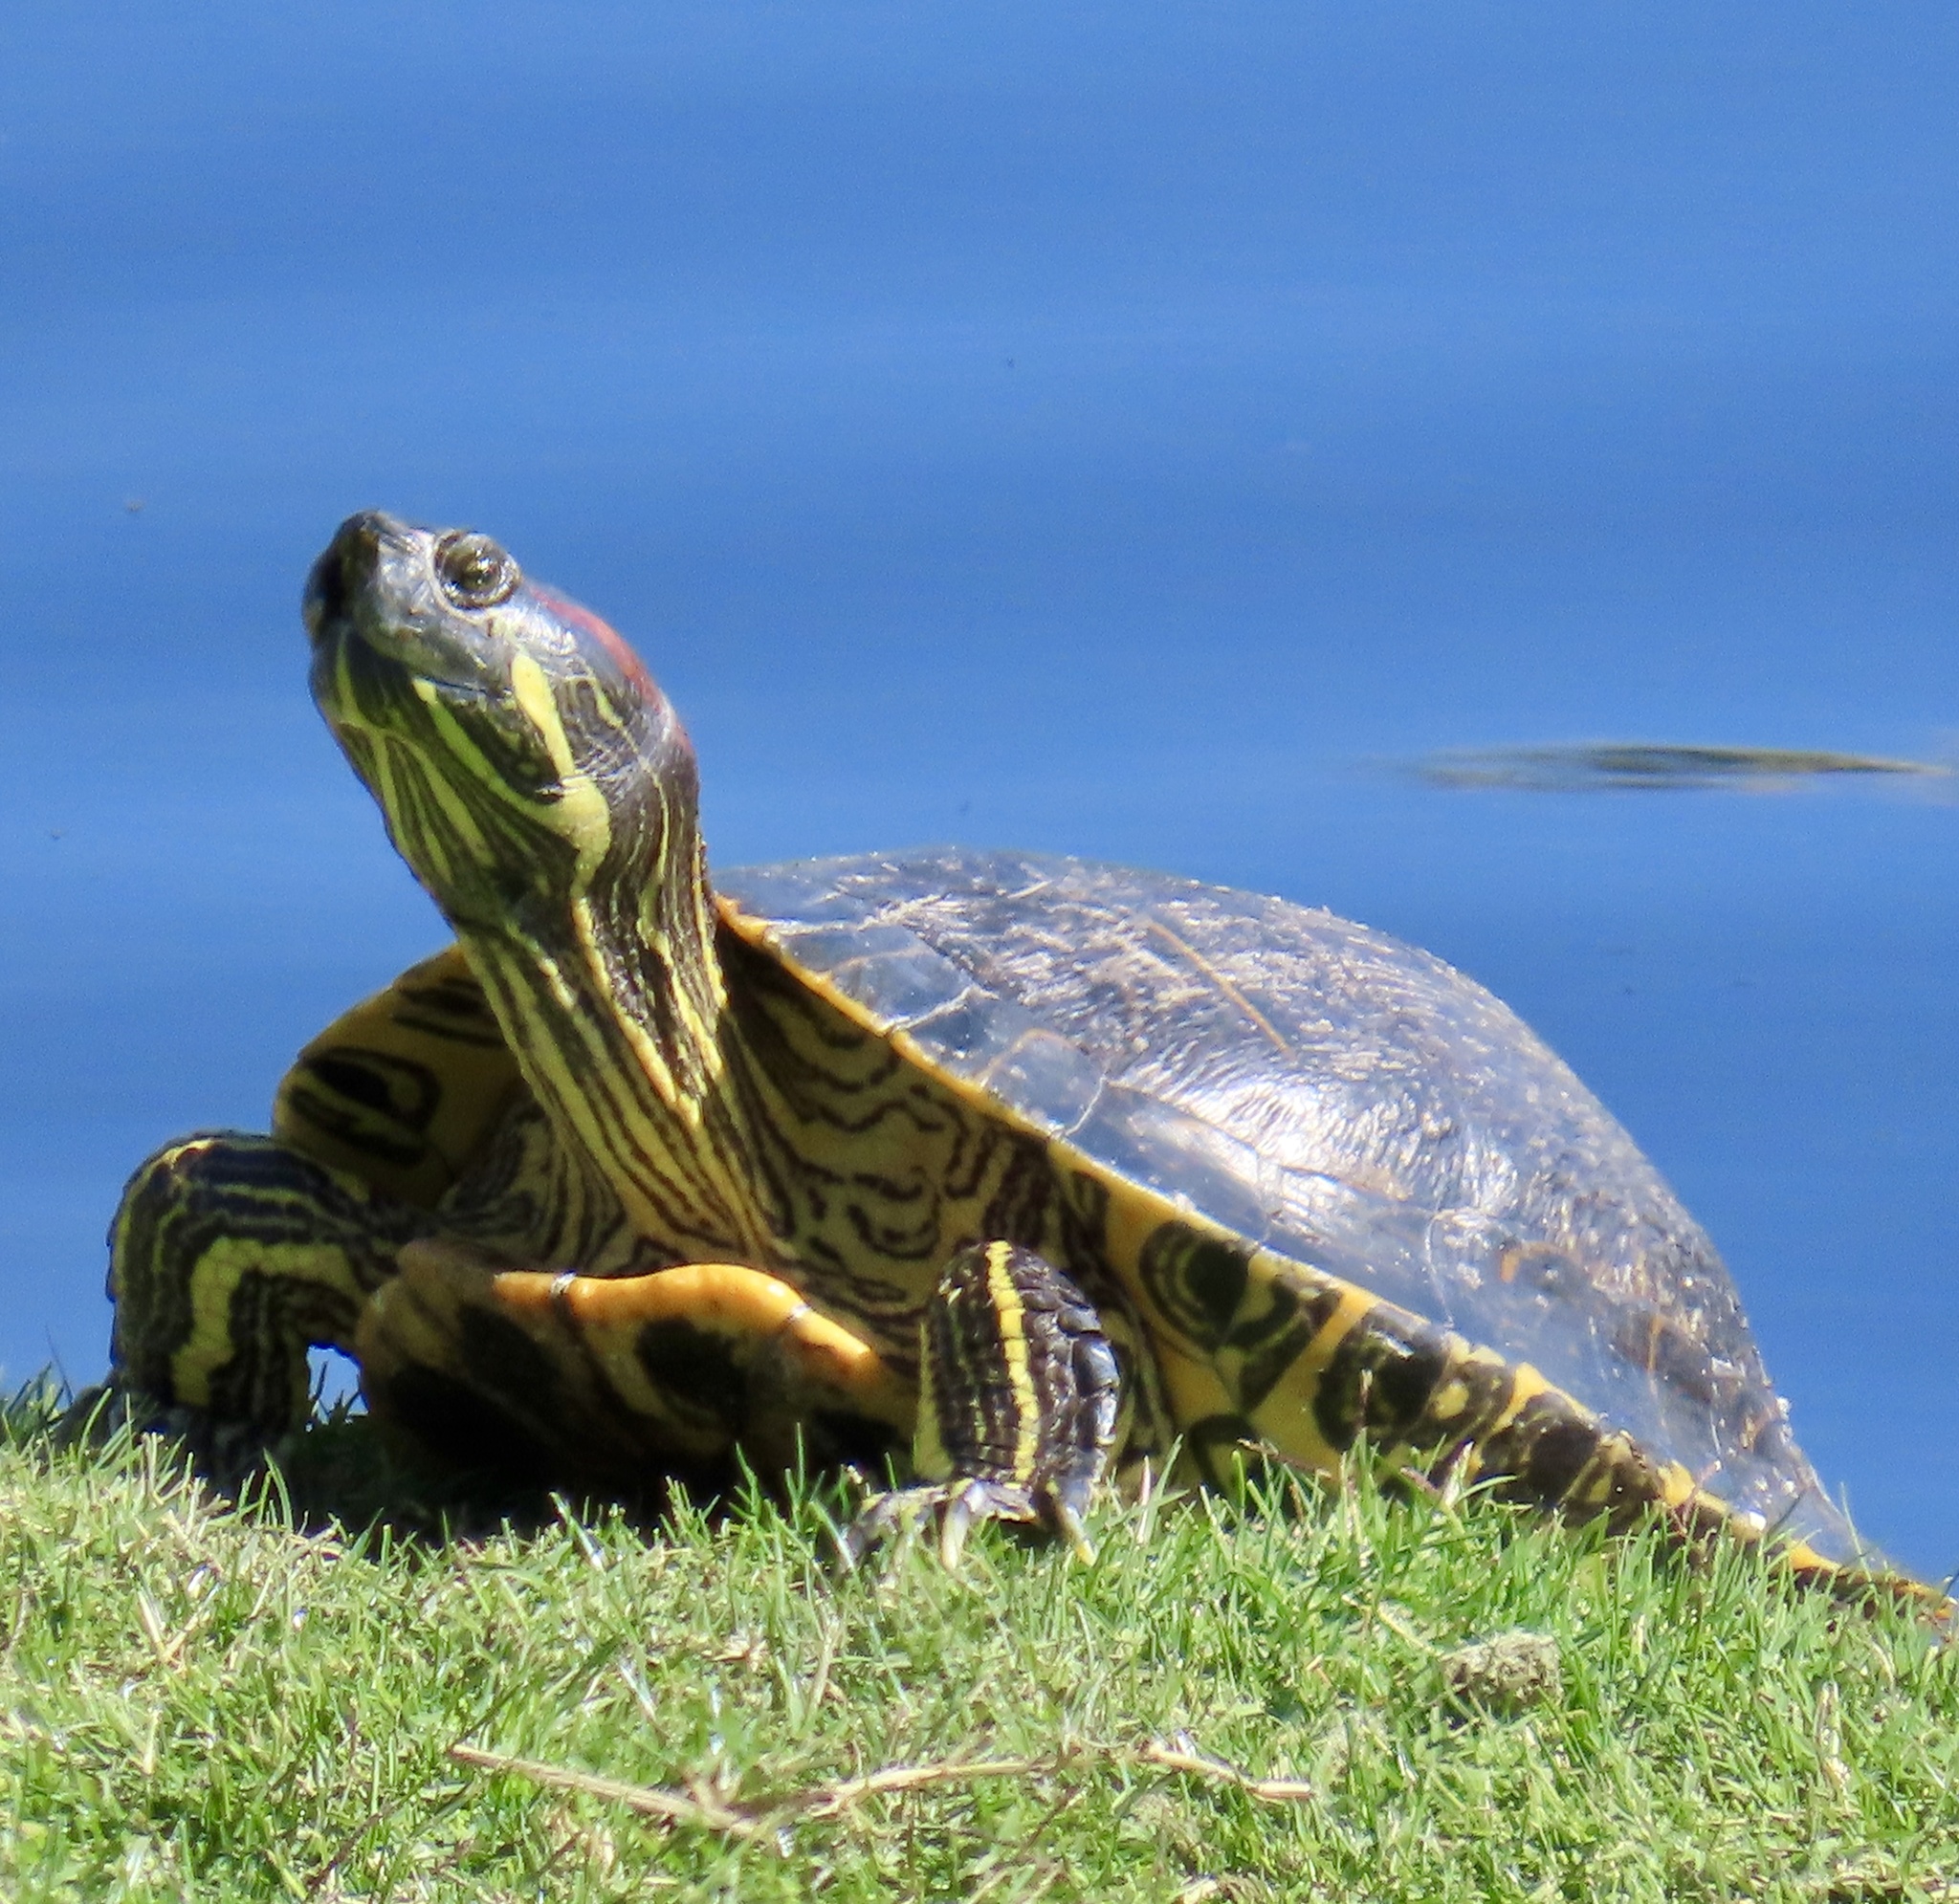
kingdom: Animalia
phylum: Chordata
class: Testudines
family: Emydidae
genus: Trachemys
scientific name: Trachemys scripta
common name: Slider
